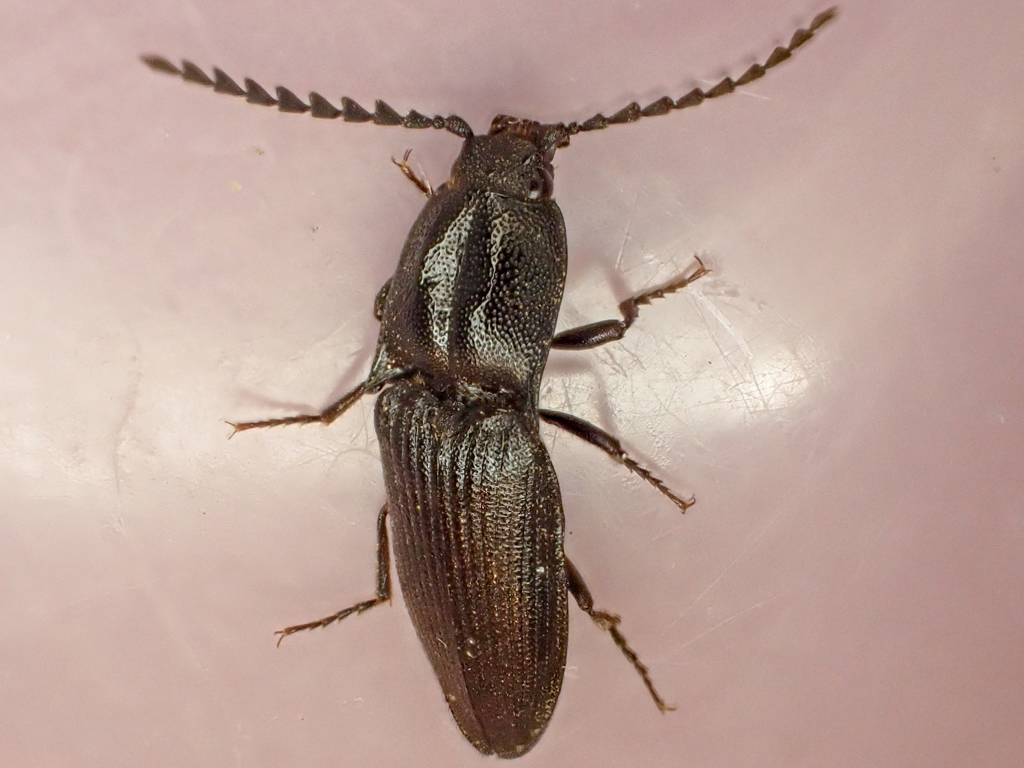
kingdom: Animalia
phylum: Arthropoda
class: Insecta
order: Coleoptera
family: Elateridae
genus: Neopristilophus
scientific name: Neopristilophus
